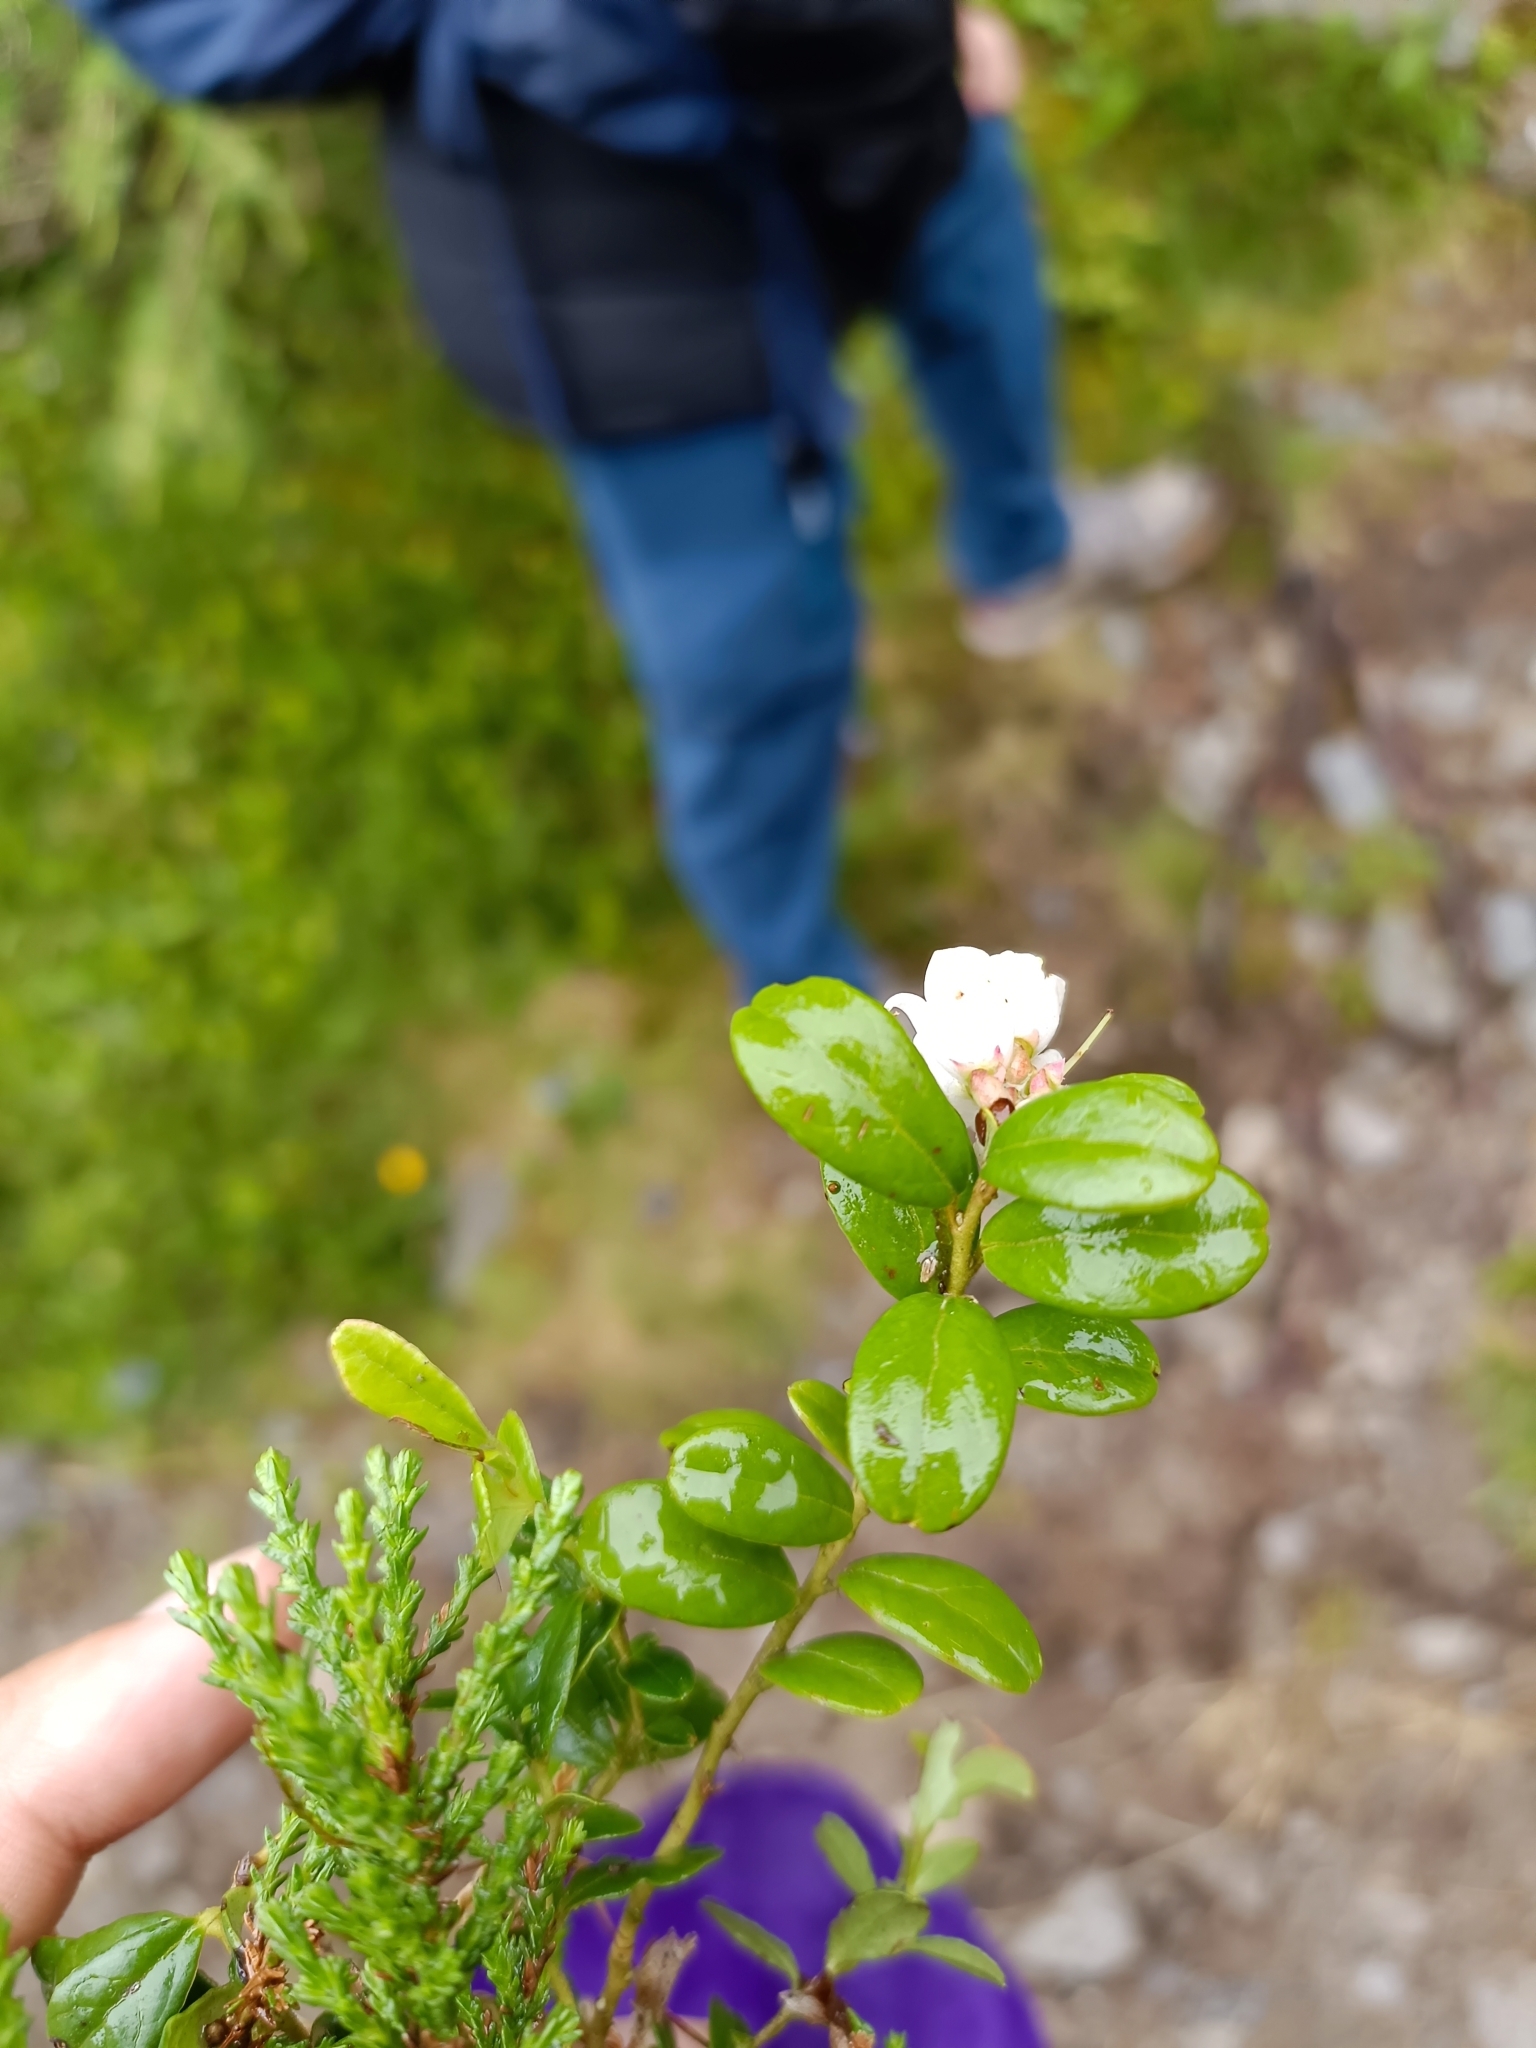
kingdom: Plantae
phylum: Tracheophyta
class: Magnoliopsida
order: Ericales
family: Ericaceae
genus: Vaccinium
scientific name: Vaccinium vitis-idaea
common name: Cowberry
